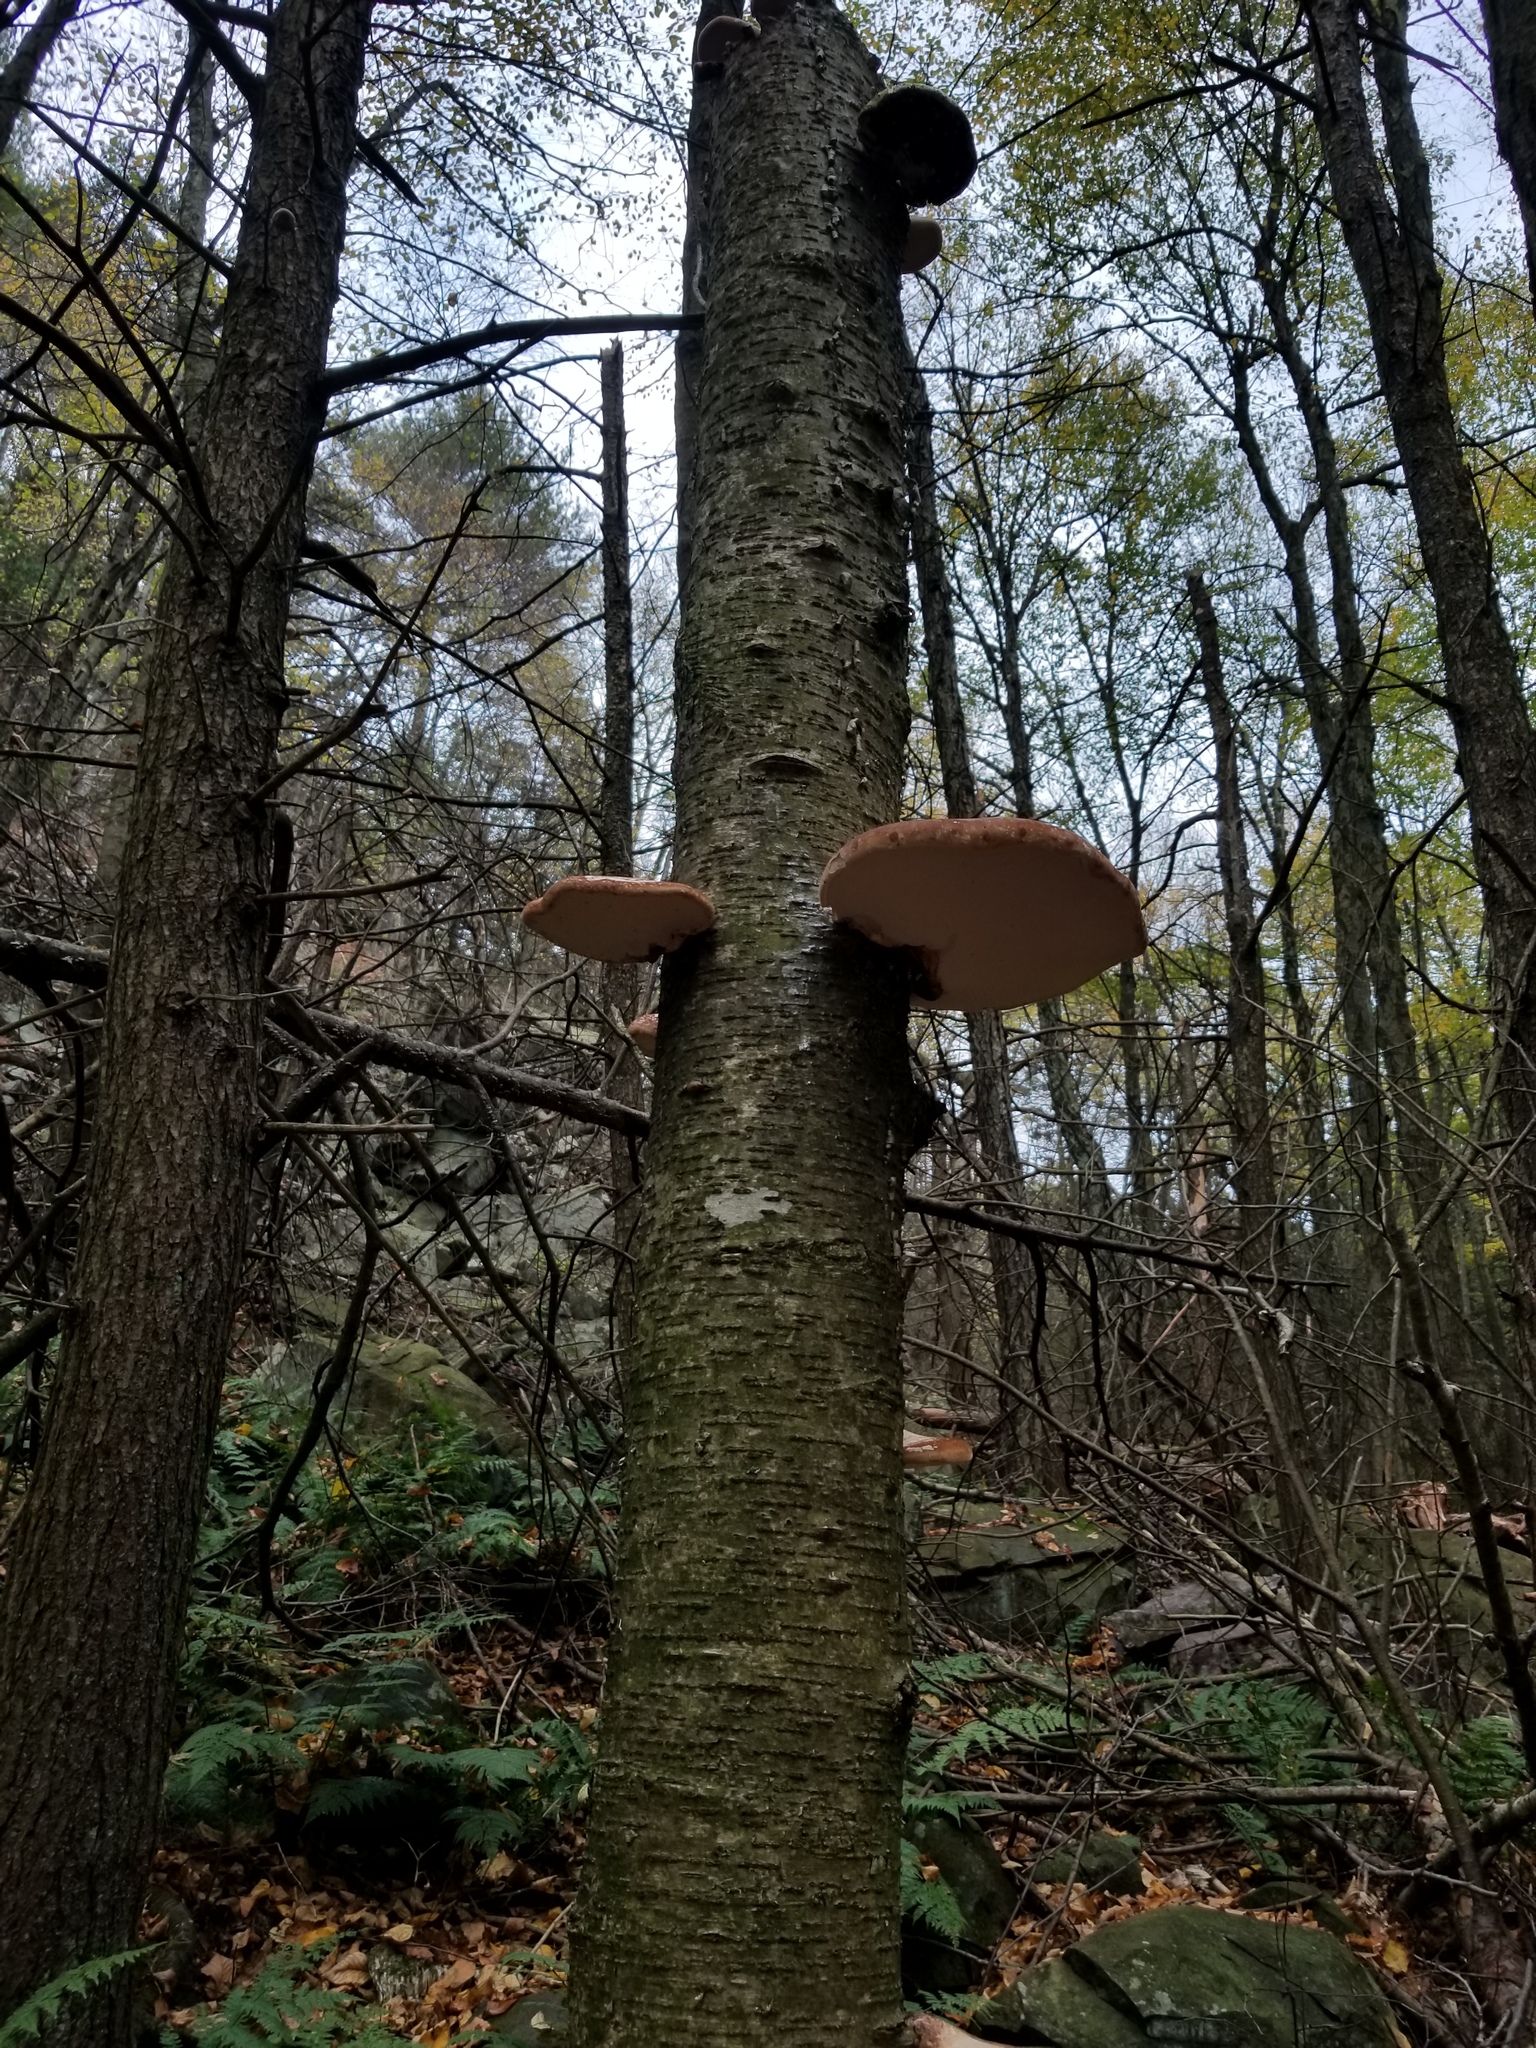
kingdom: Fungi
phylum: Basidiomycota
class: Agaricomycetes
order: Polyporales
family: Fomitopsidaceae
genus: Fomitopsis
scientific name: Fomitopsis betulina
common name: Birch polypore
